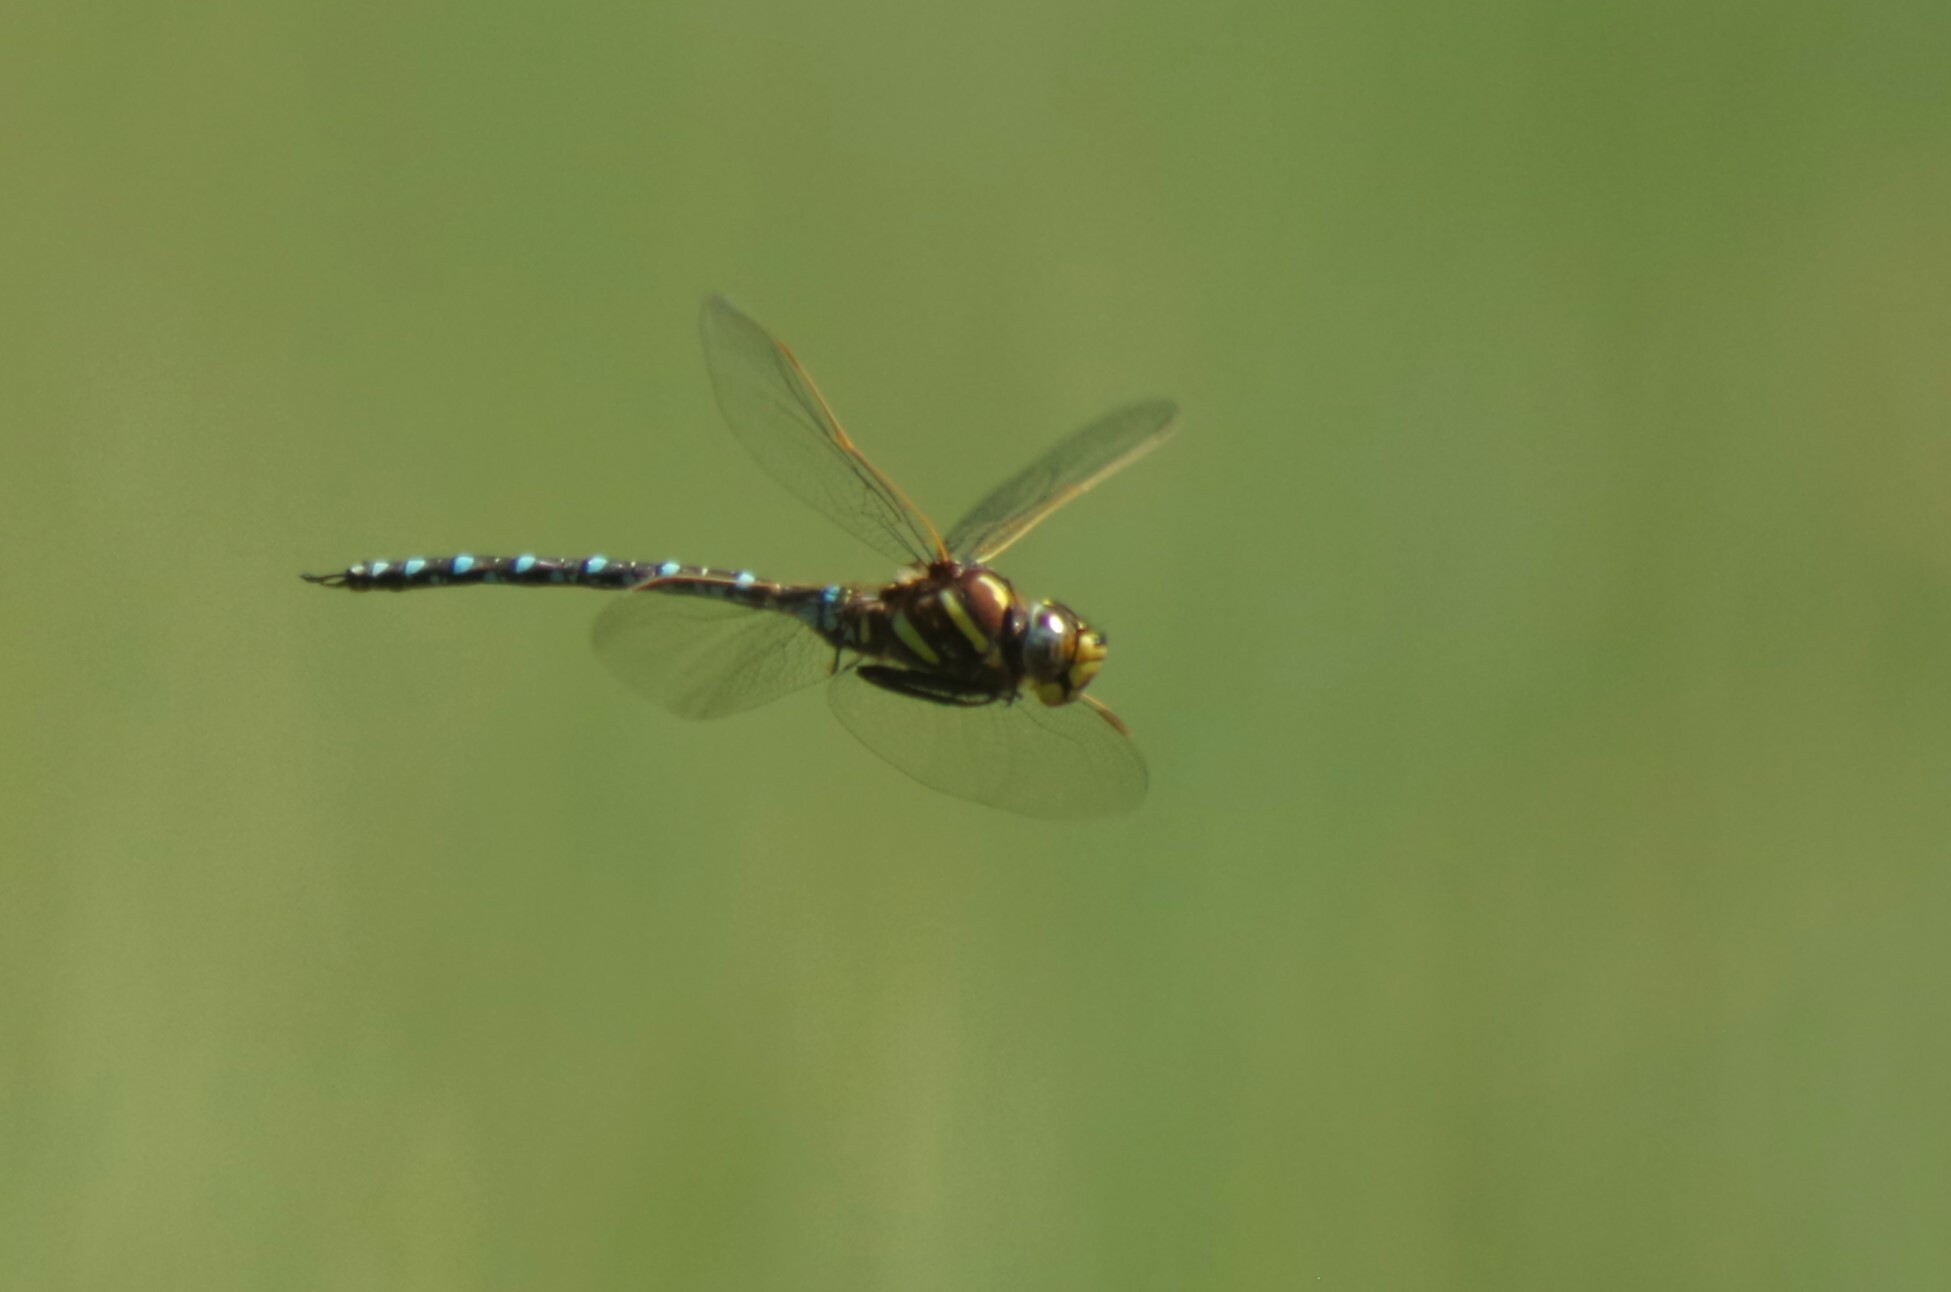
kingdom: Animalia
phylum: Arthropoda
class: Insecta
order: Odonata
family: Aeshnidae
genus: Aeshna
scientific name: Aeshna juncea
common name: Moorland hawker
